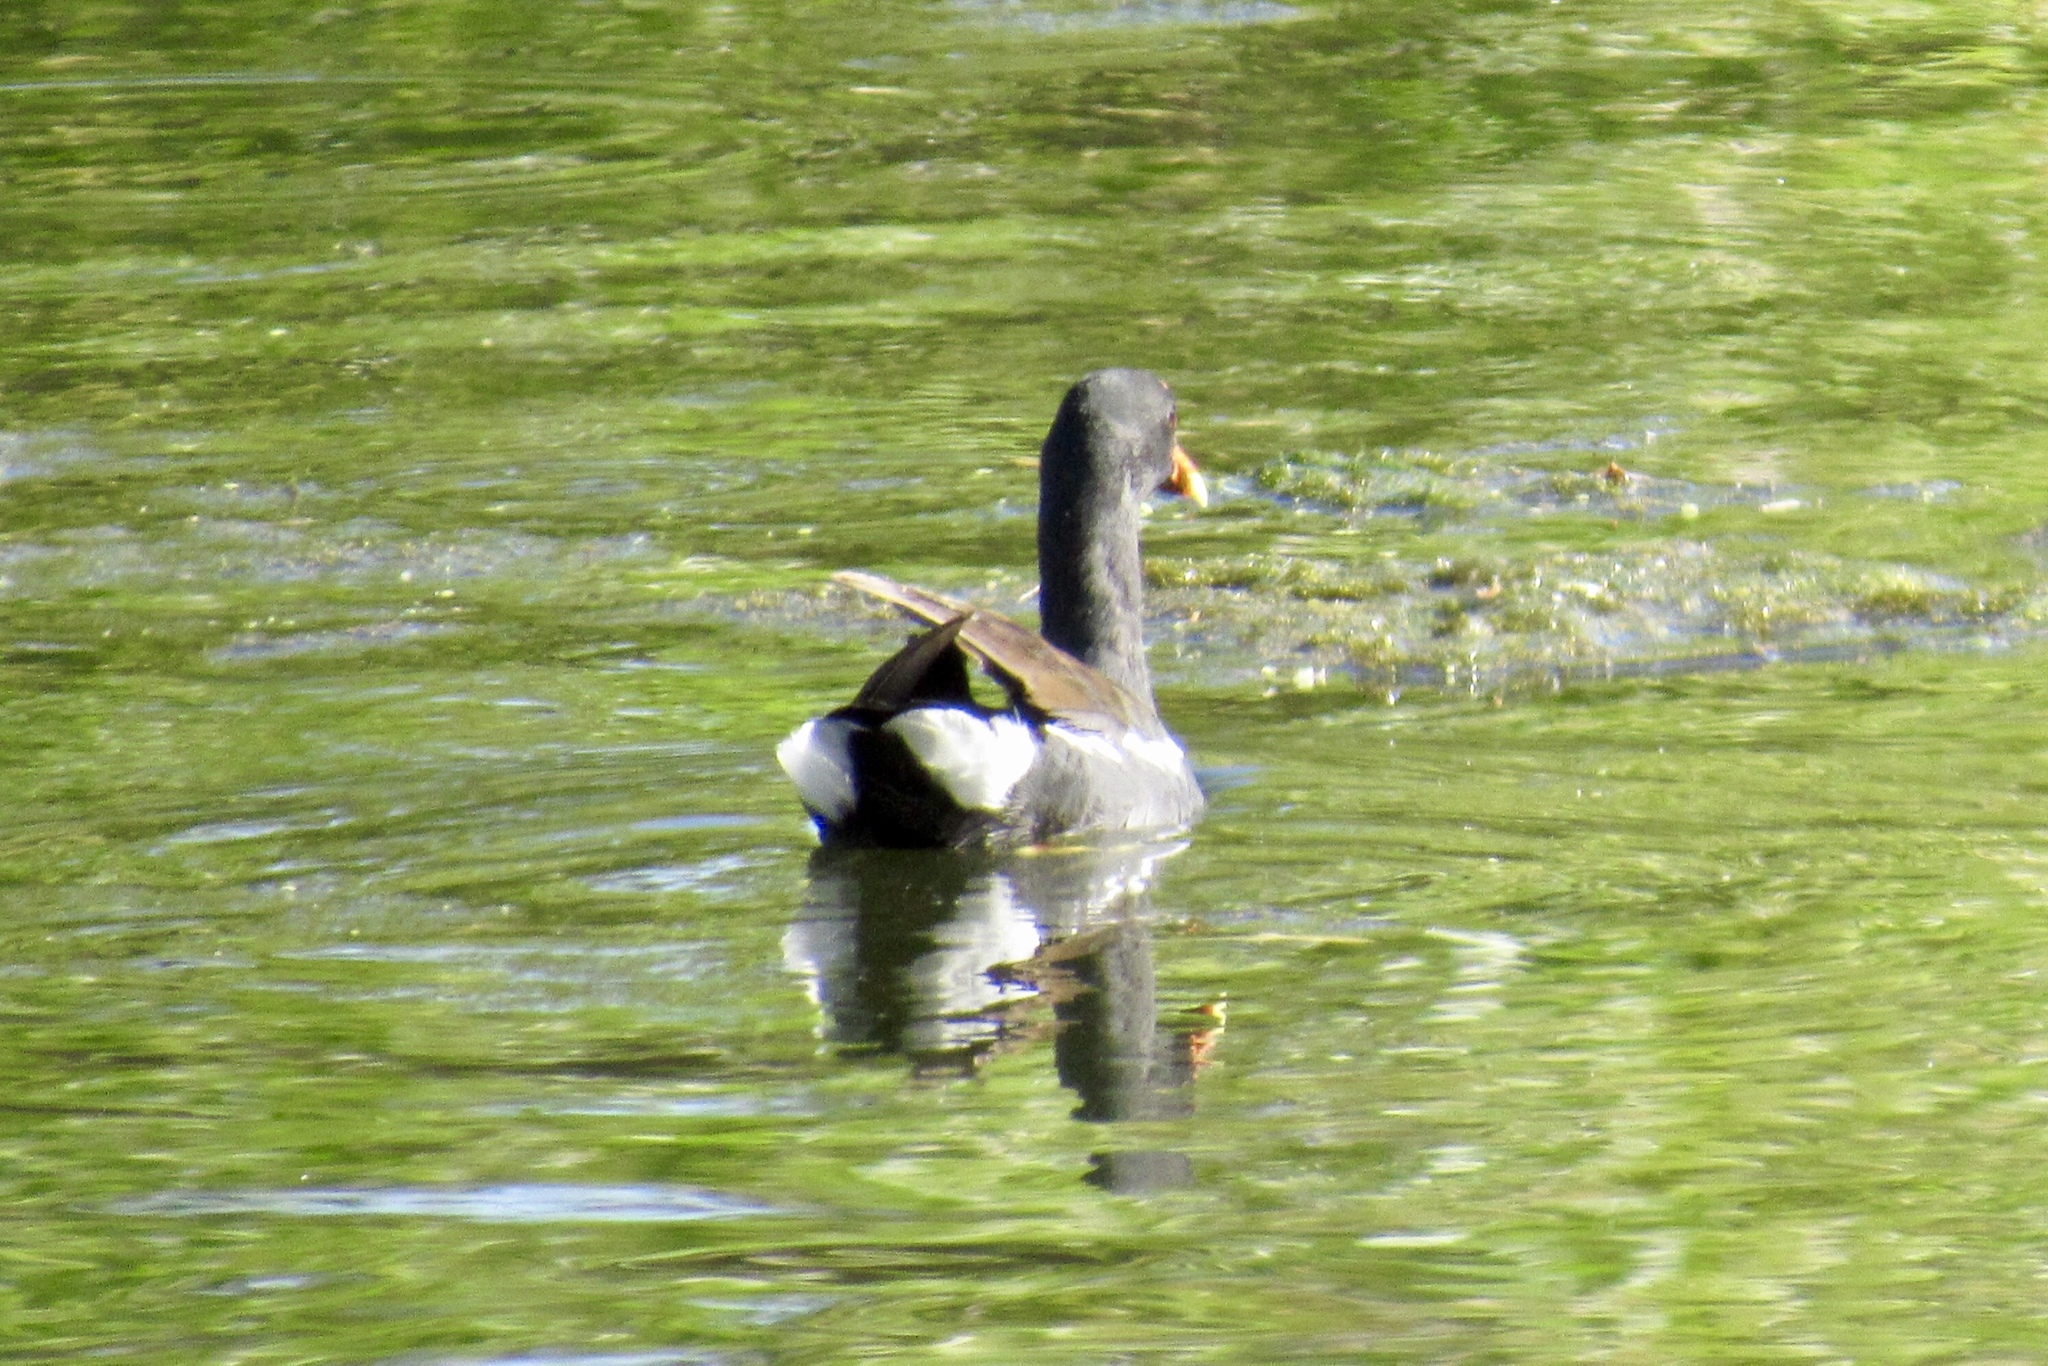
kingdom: Animalia
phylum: Chordata
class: Aves
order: Gruiformes
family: Rallidae
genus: Gallinula
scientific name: Gallinula chloropus
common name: Common moorhen
